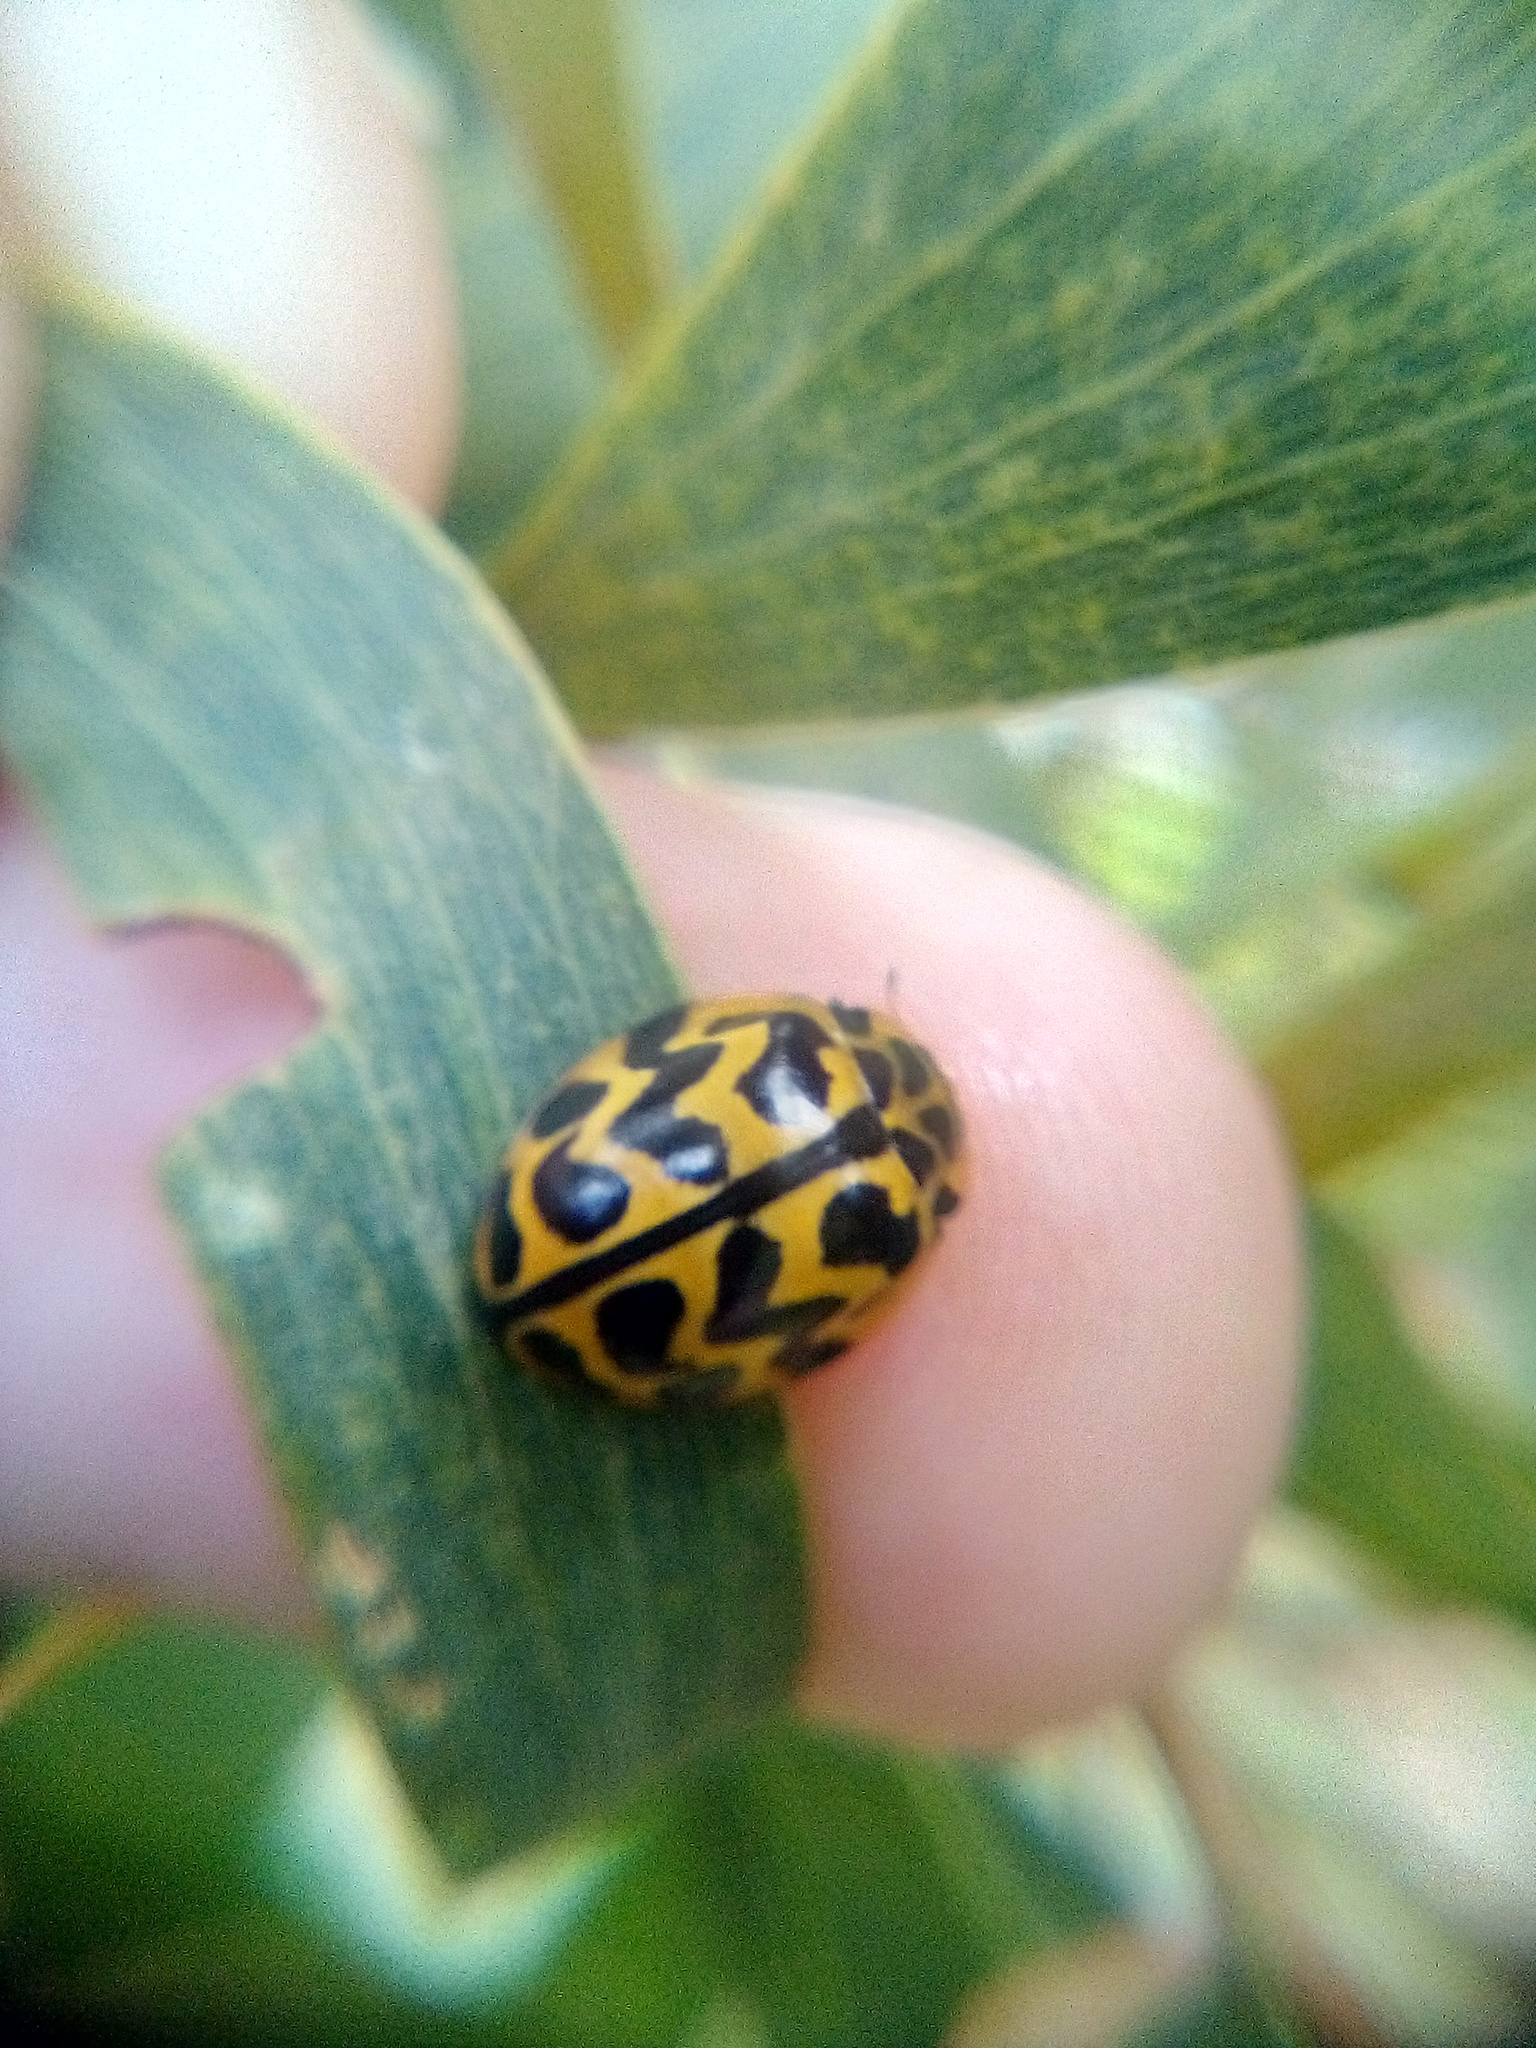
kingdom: Animalia
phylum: Arthropoda
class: Insecta
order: Coleoptera
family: Coccinellidae
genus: Cleobora
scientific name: Cleobora
